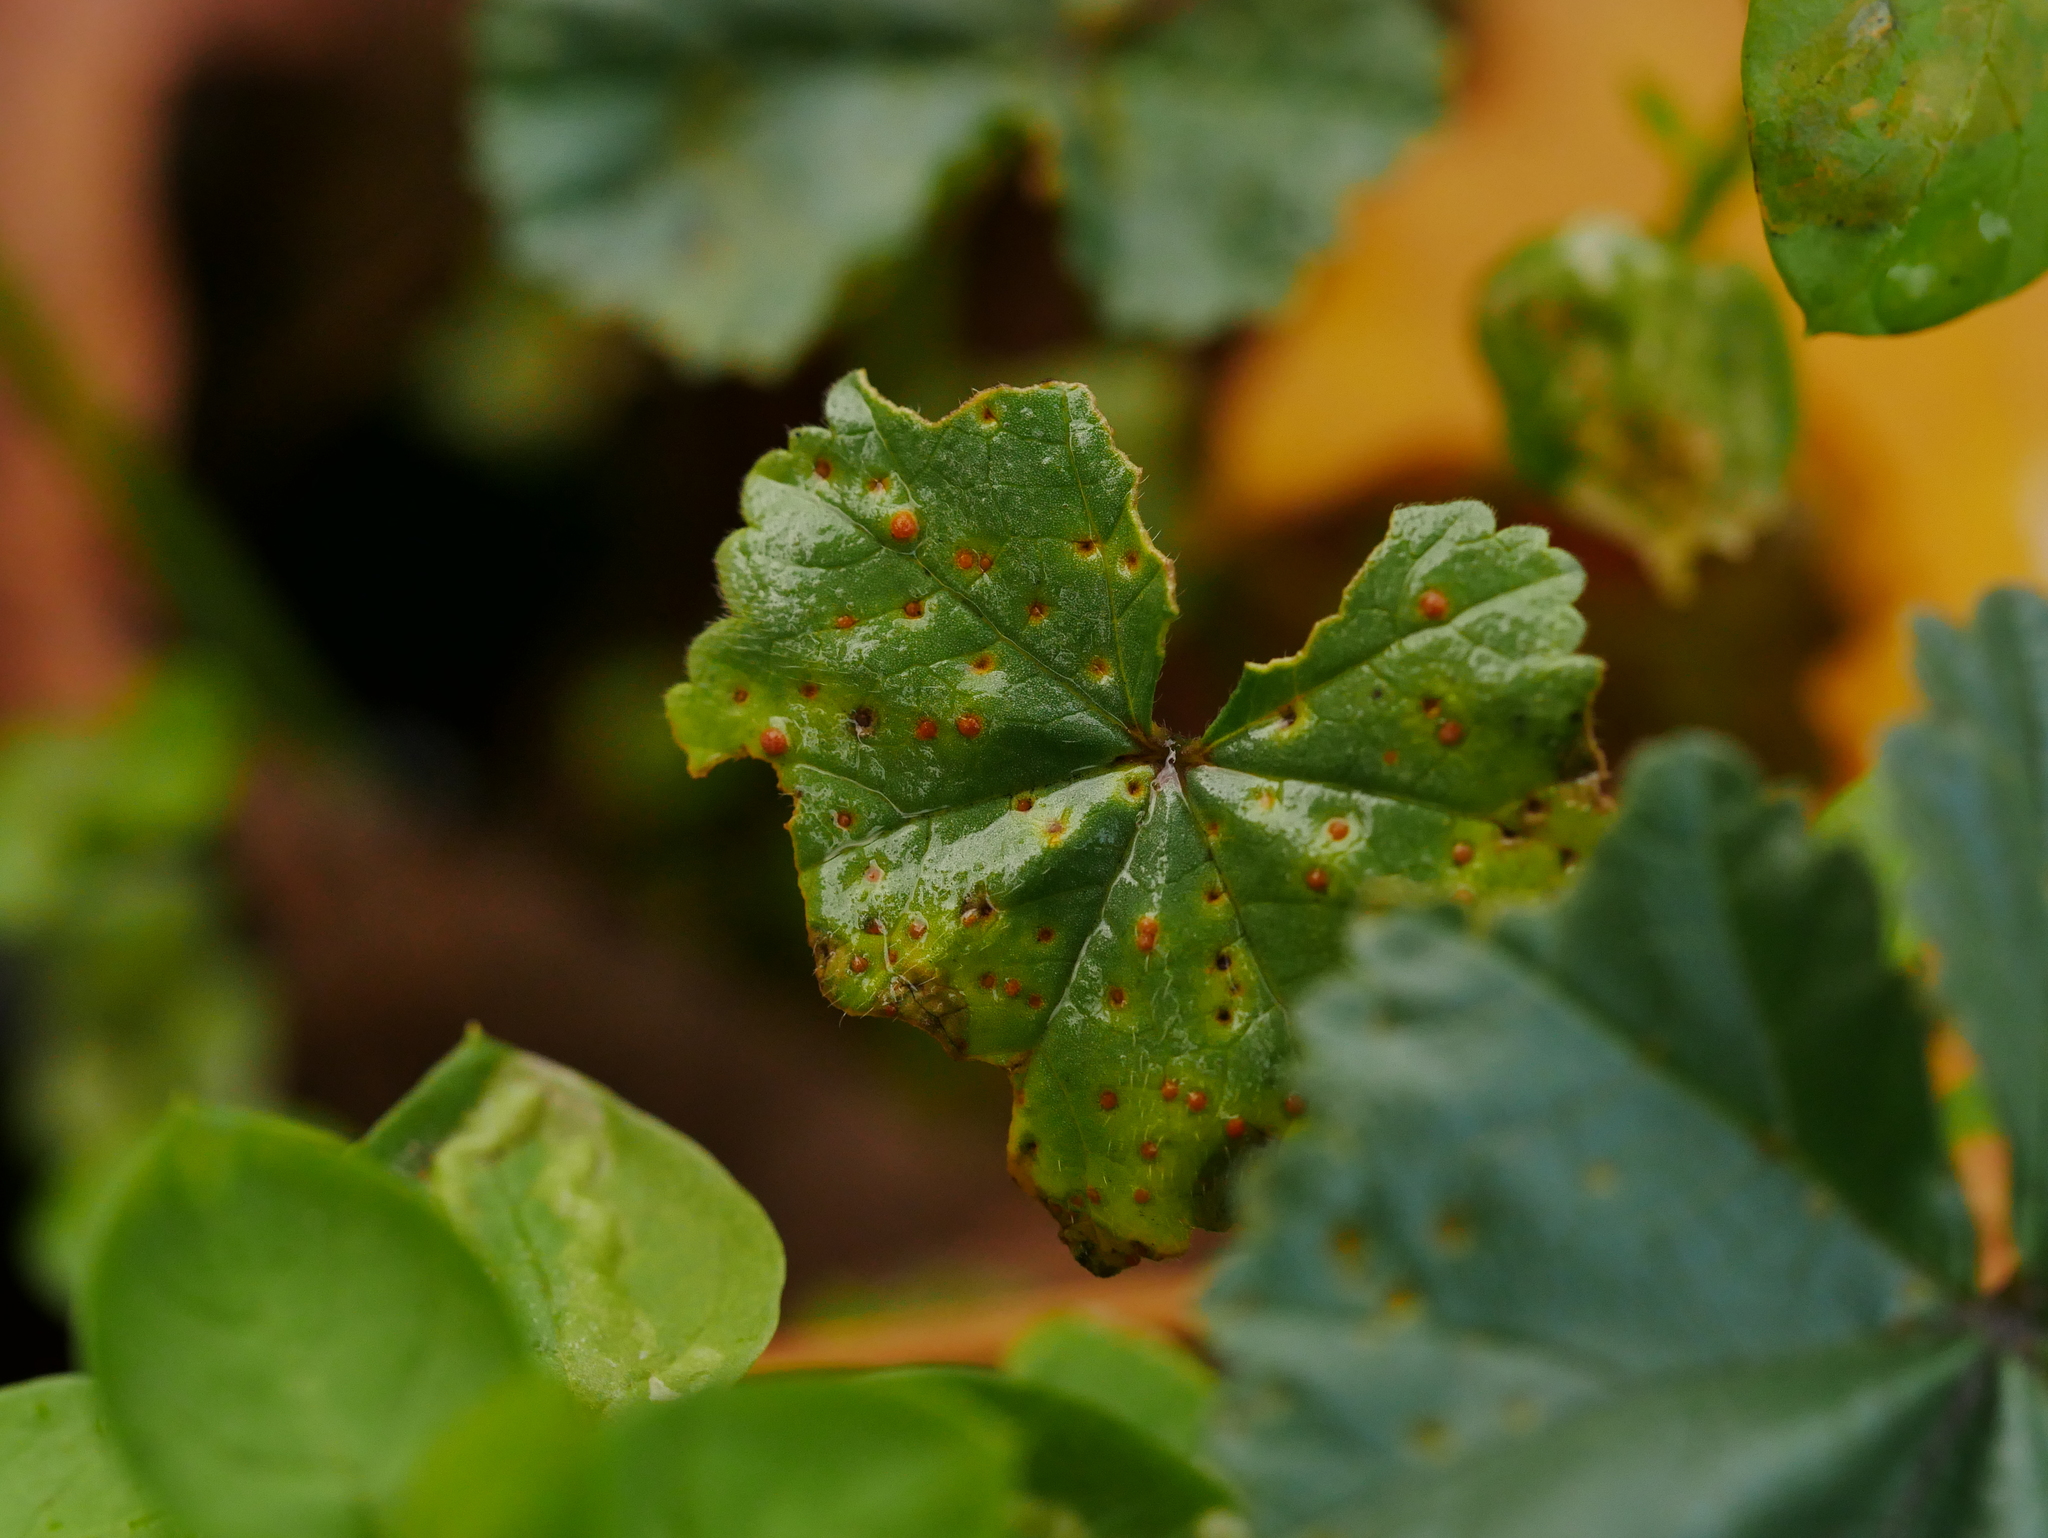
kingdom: Fungi
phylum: Basidiomycota
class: Pucciniomycetes
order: Pucciniales
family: Pucciniaceae
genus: Puccinia
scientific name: Puccinia malvacearum
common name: Hollyhock rust
